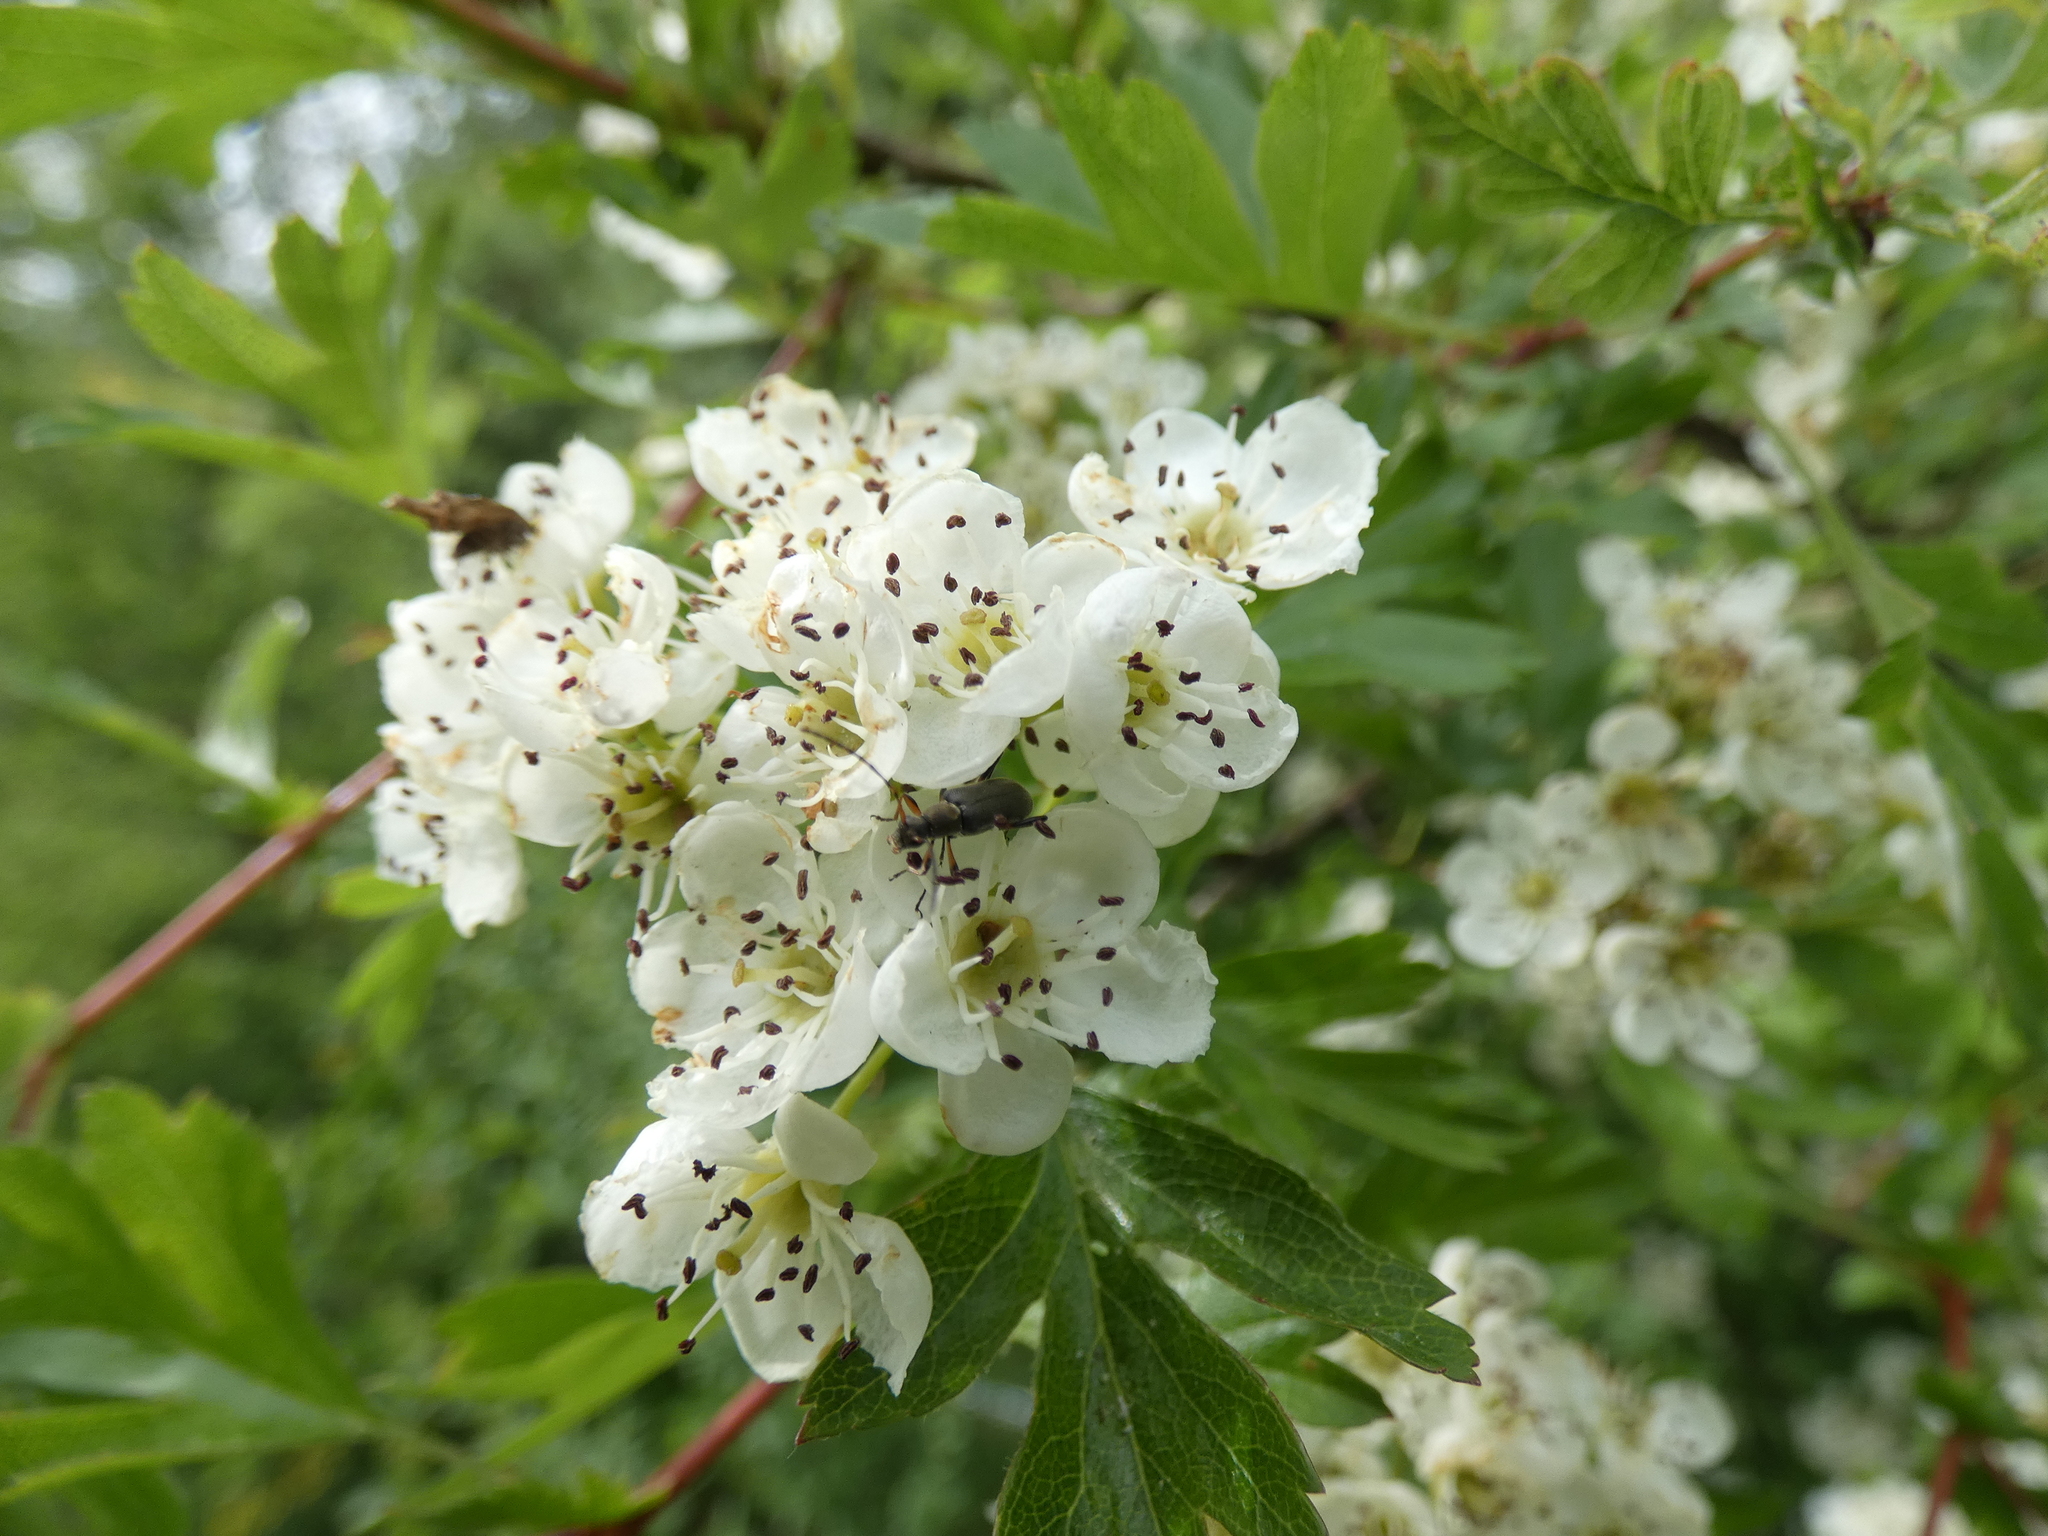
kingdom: Animalia
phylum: Arthropoda
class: Insecta
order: Coleoptera
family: Cerambycidae
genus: Grammoptera
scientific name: Grammoptera ruficornis
